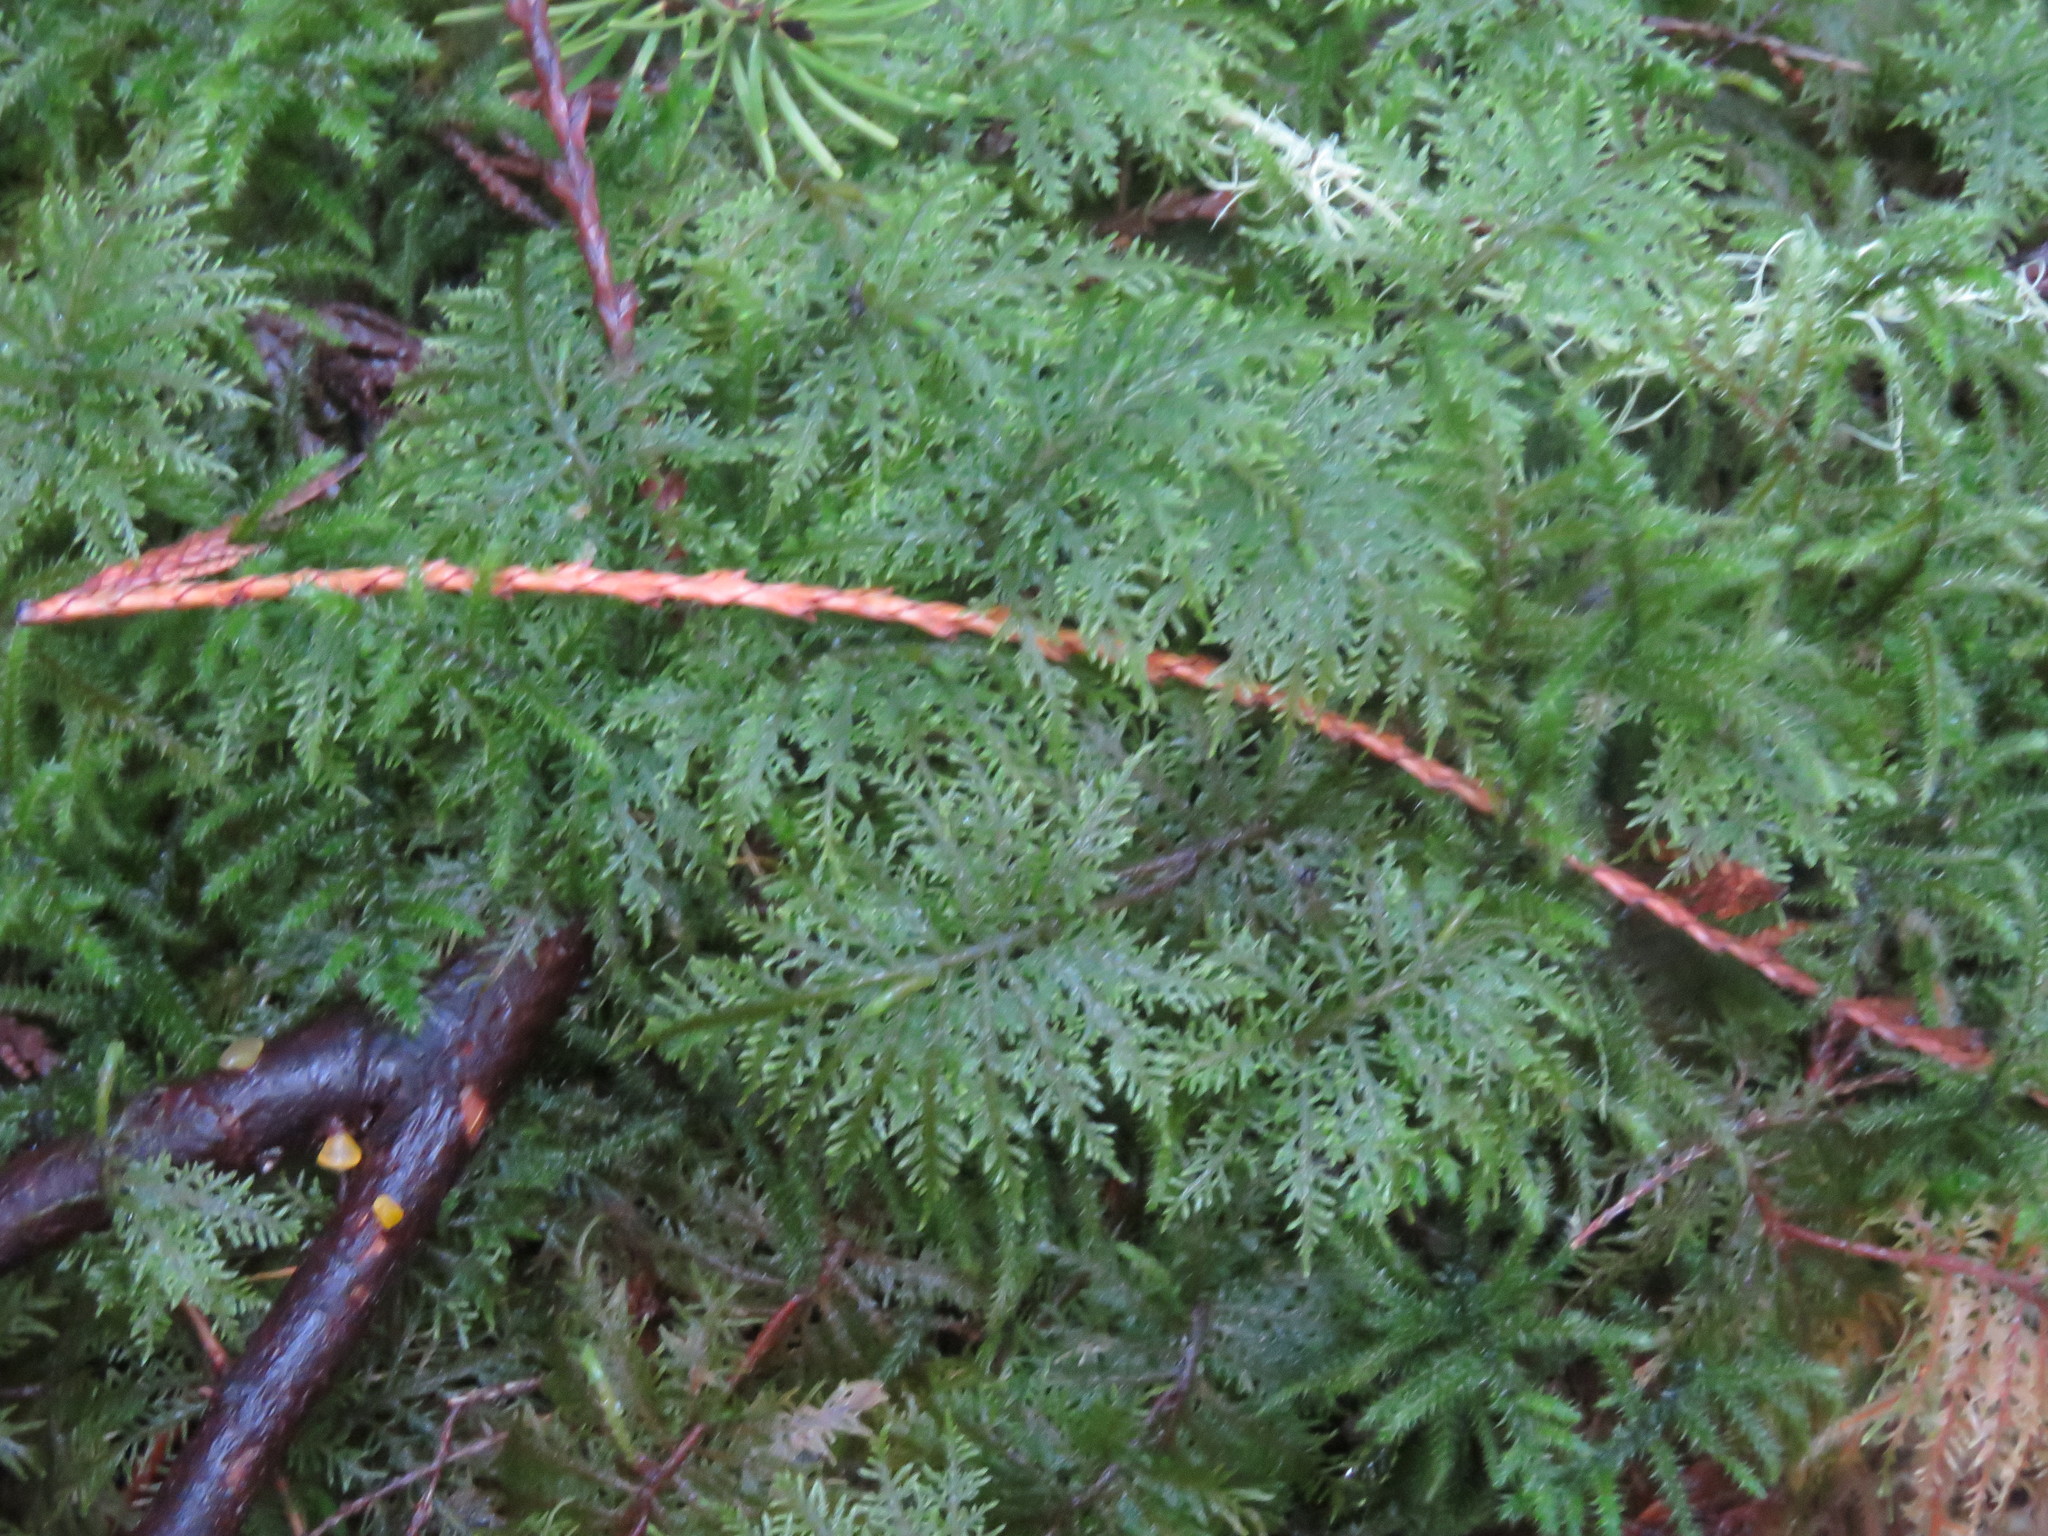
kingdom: Plantae
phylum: Bryophyta
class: Bryopsida
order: Hypnales
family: Hylocomiaceae
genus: Hylocomium
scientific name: Hylocomium splendens
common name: Stairstep moss
